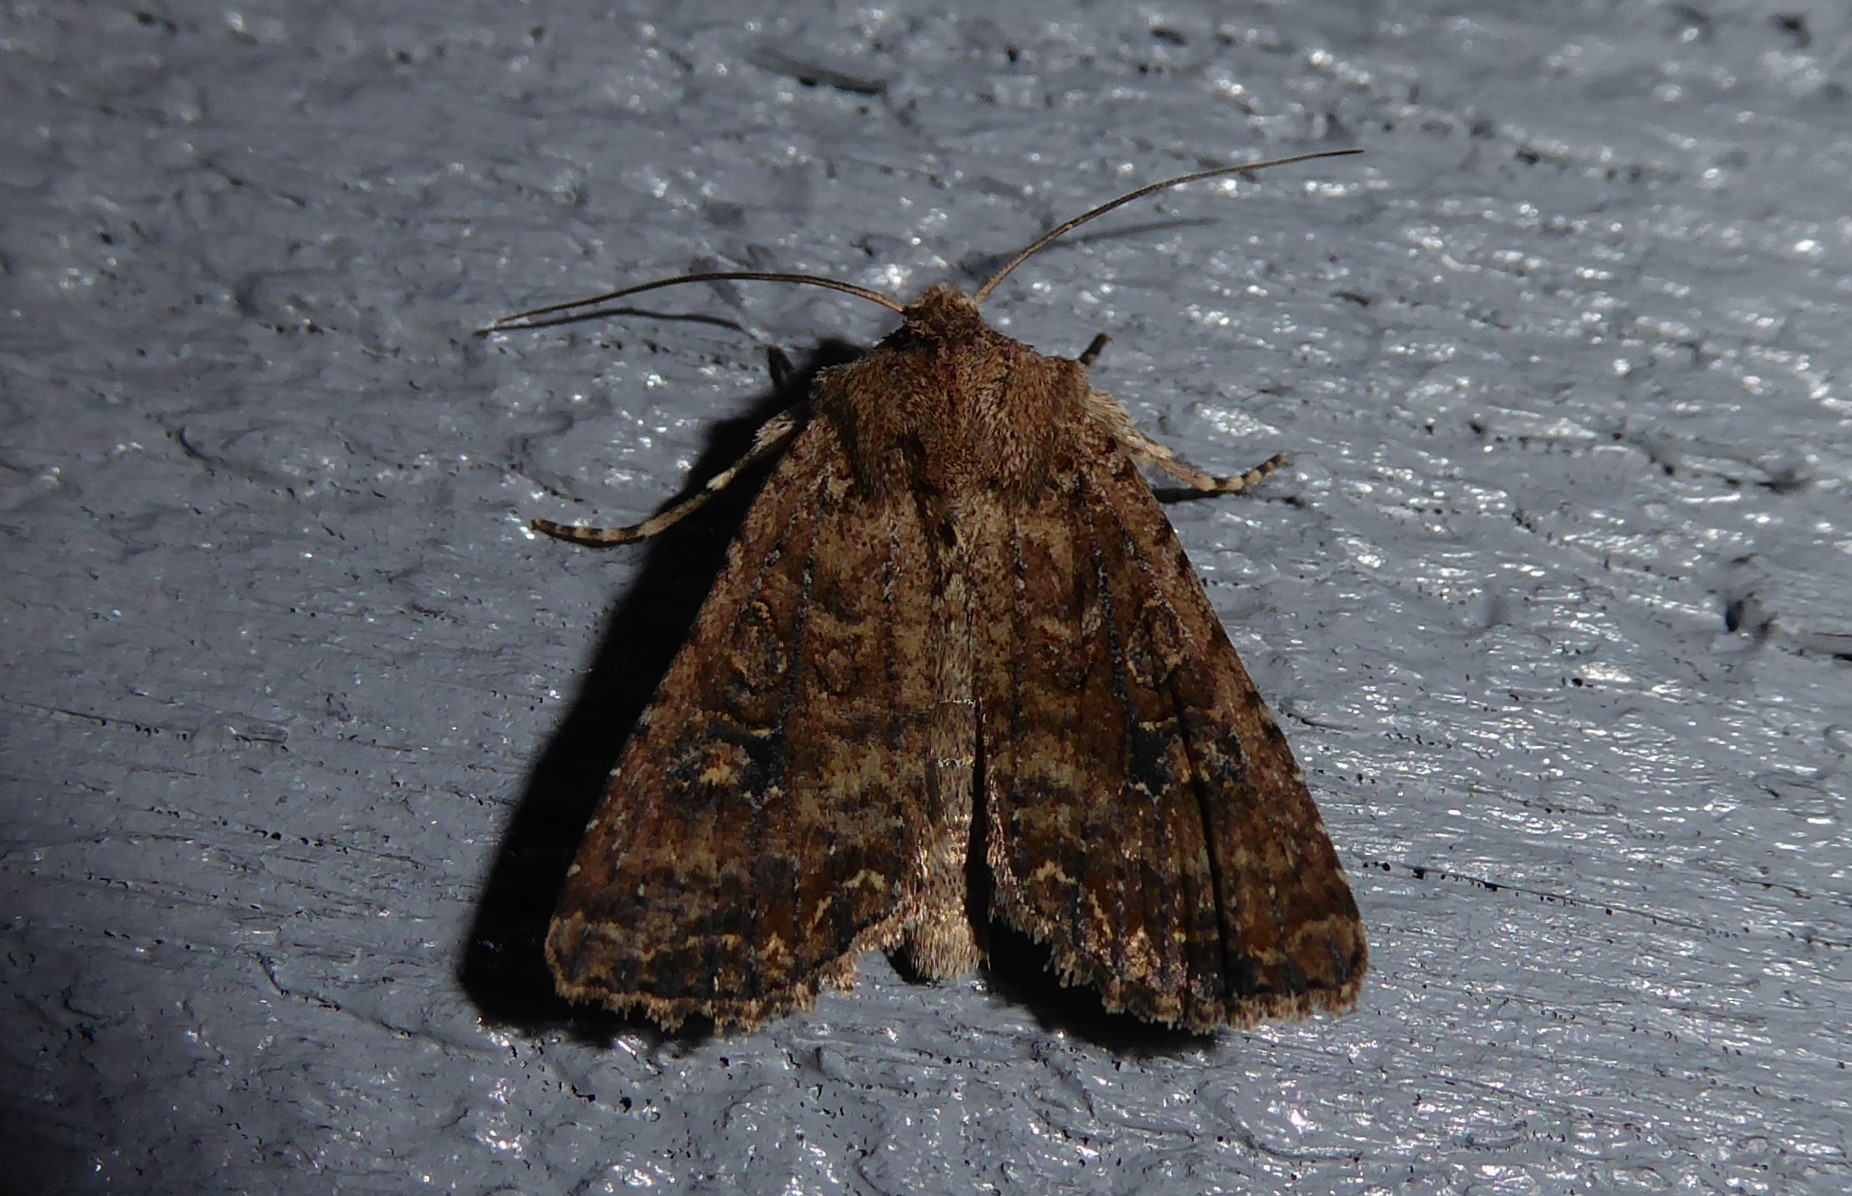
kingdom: Animalia
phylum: Arthropoda
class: Insecta
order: Lepidoptera
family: Noctuidae
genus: Ichneutica
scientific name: Ichneutica morosa
